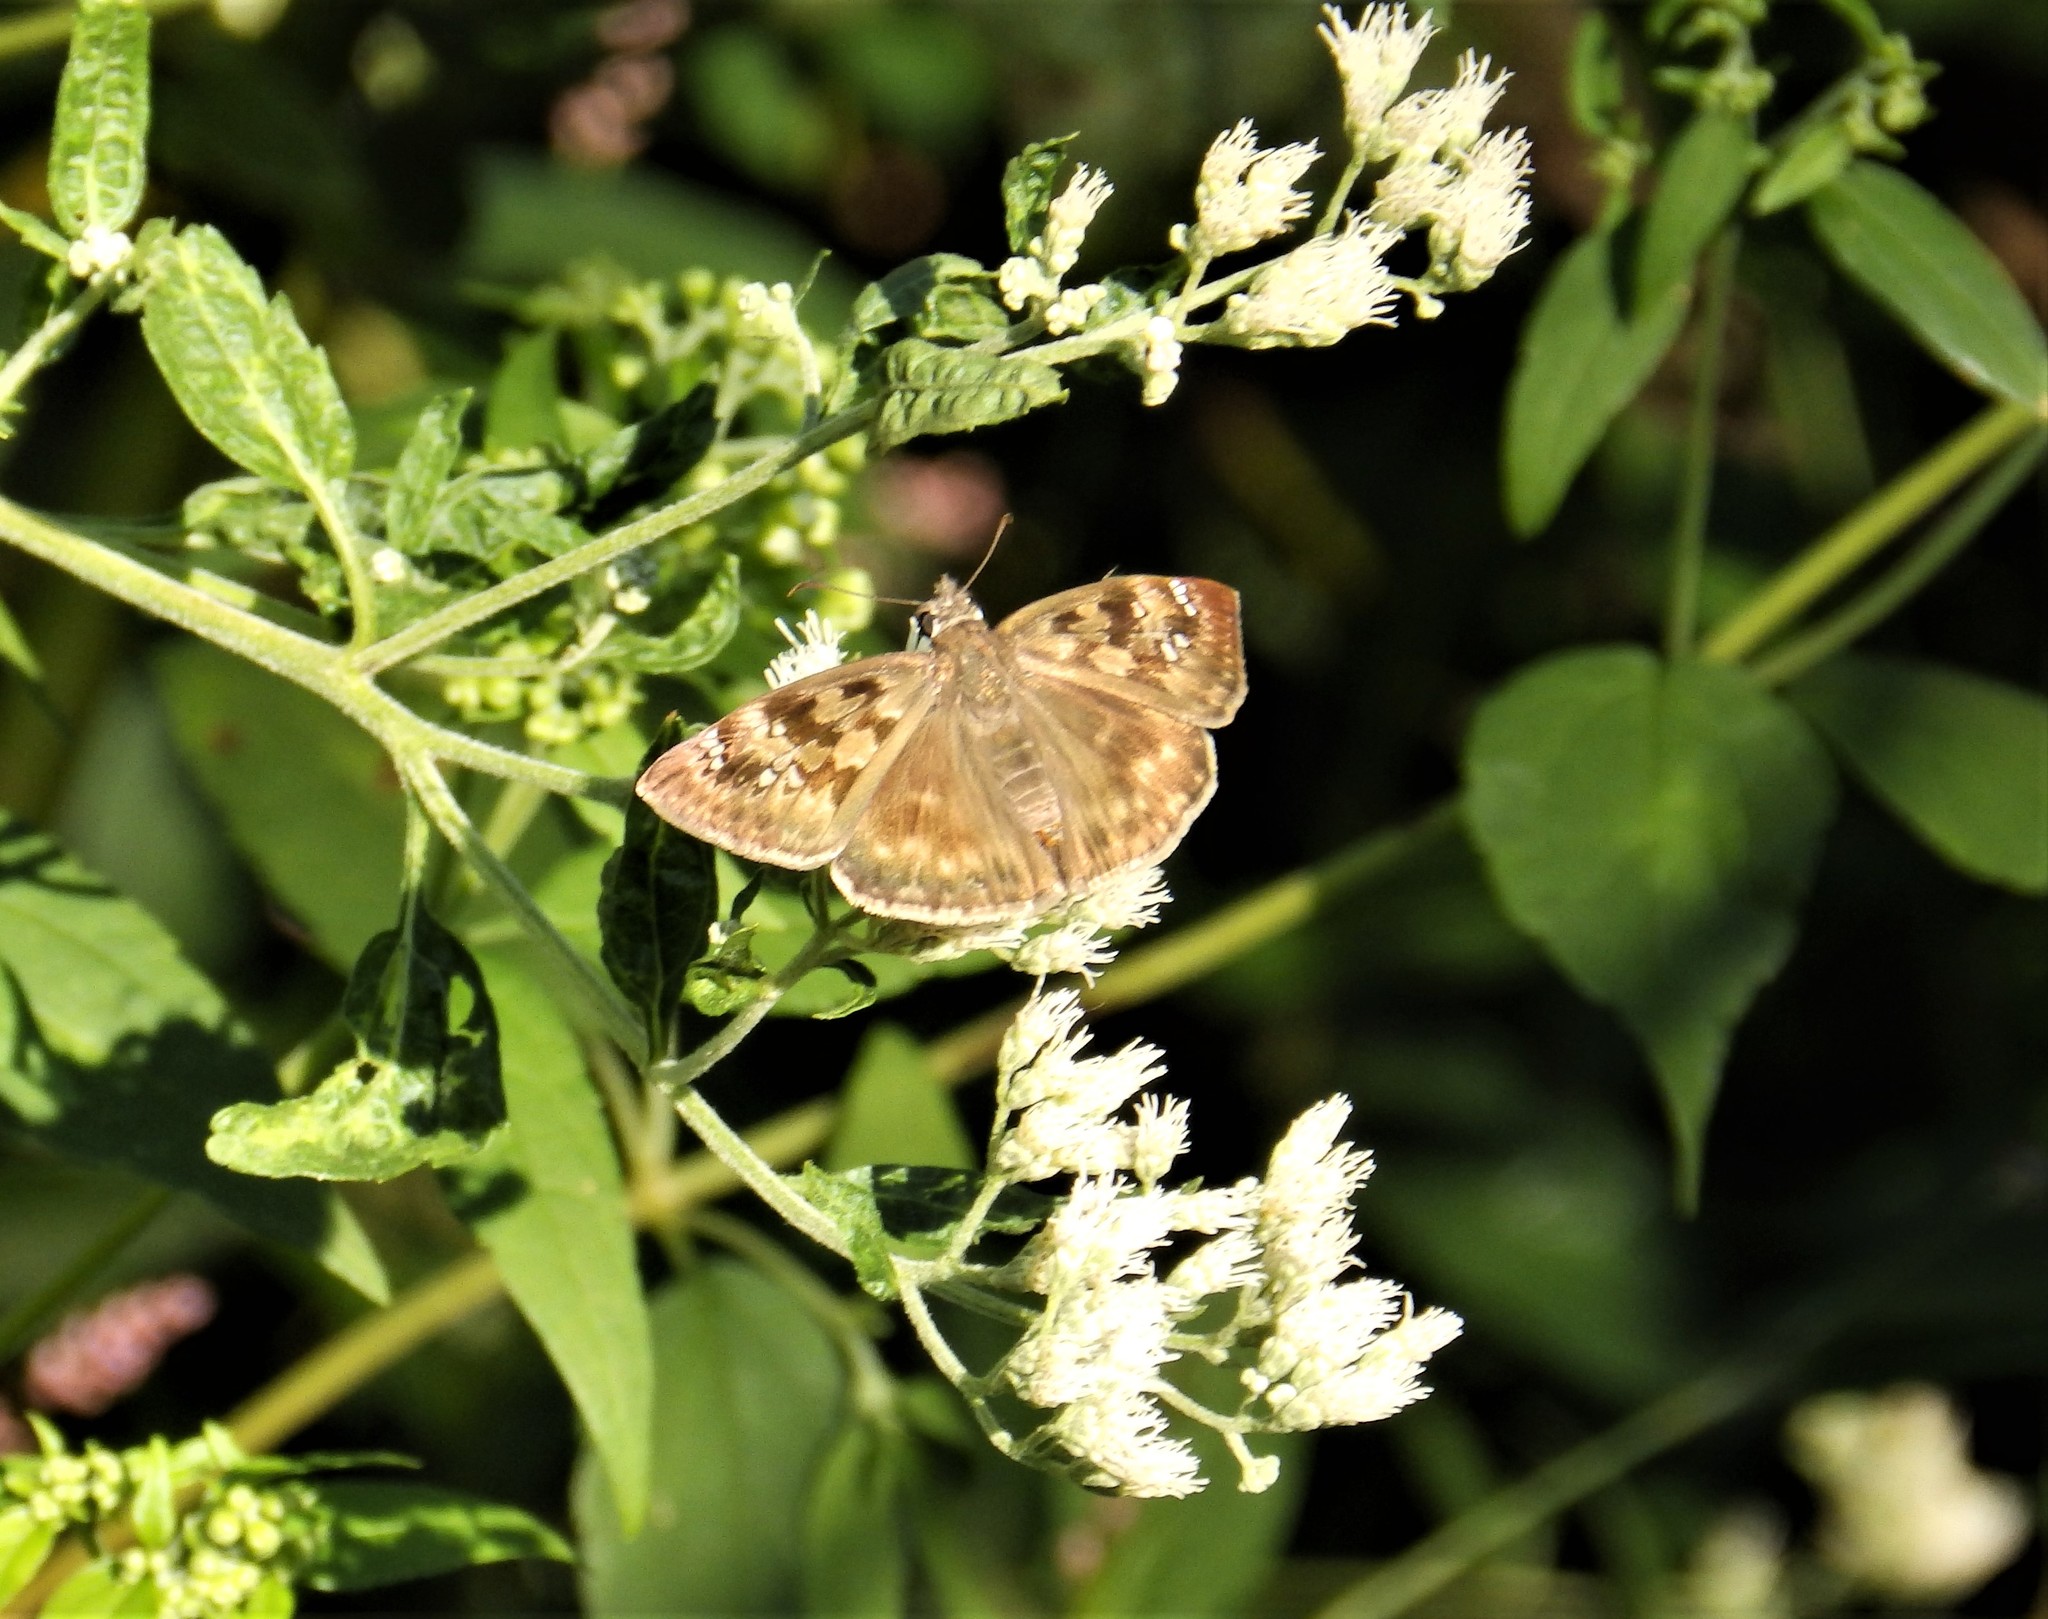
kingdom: Animalia
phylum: Arthropoda
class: Insecta
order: Lepidoptera
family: Hesperiidae
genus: Erynnis
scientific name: Erynnis horatius
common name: Horace's duskywing
